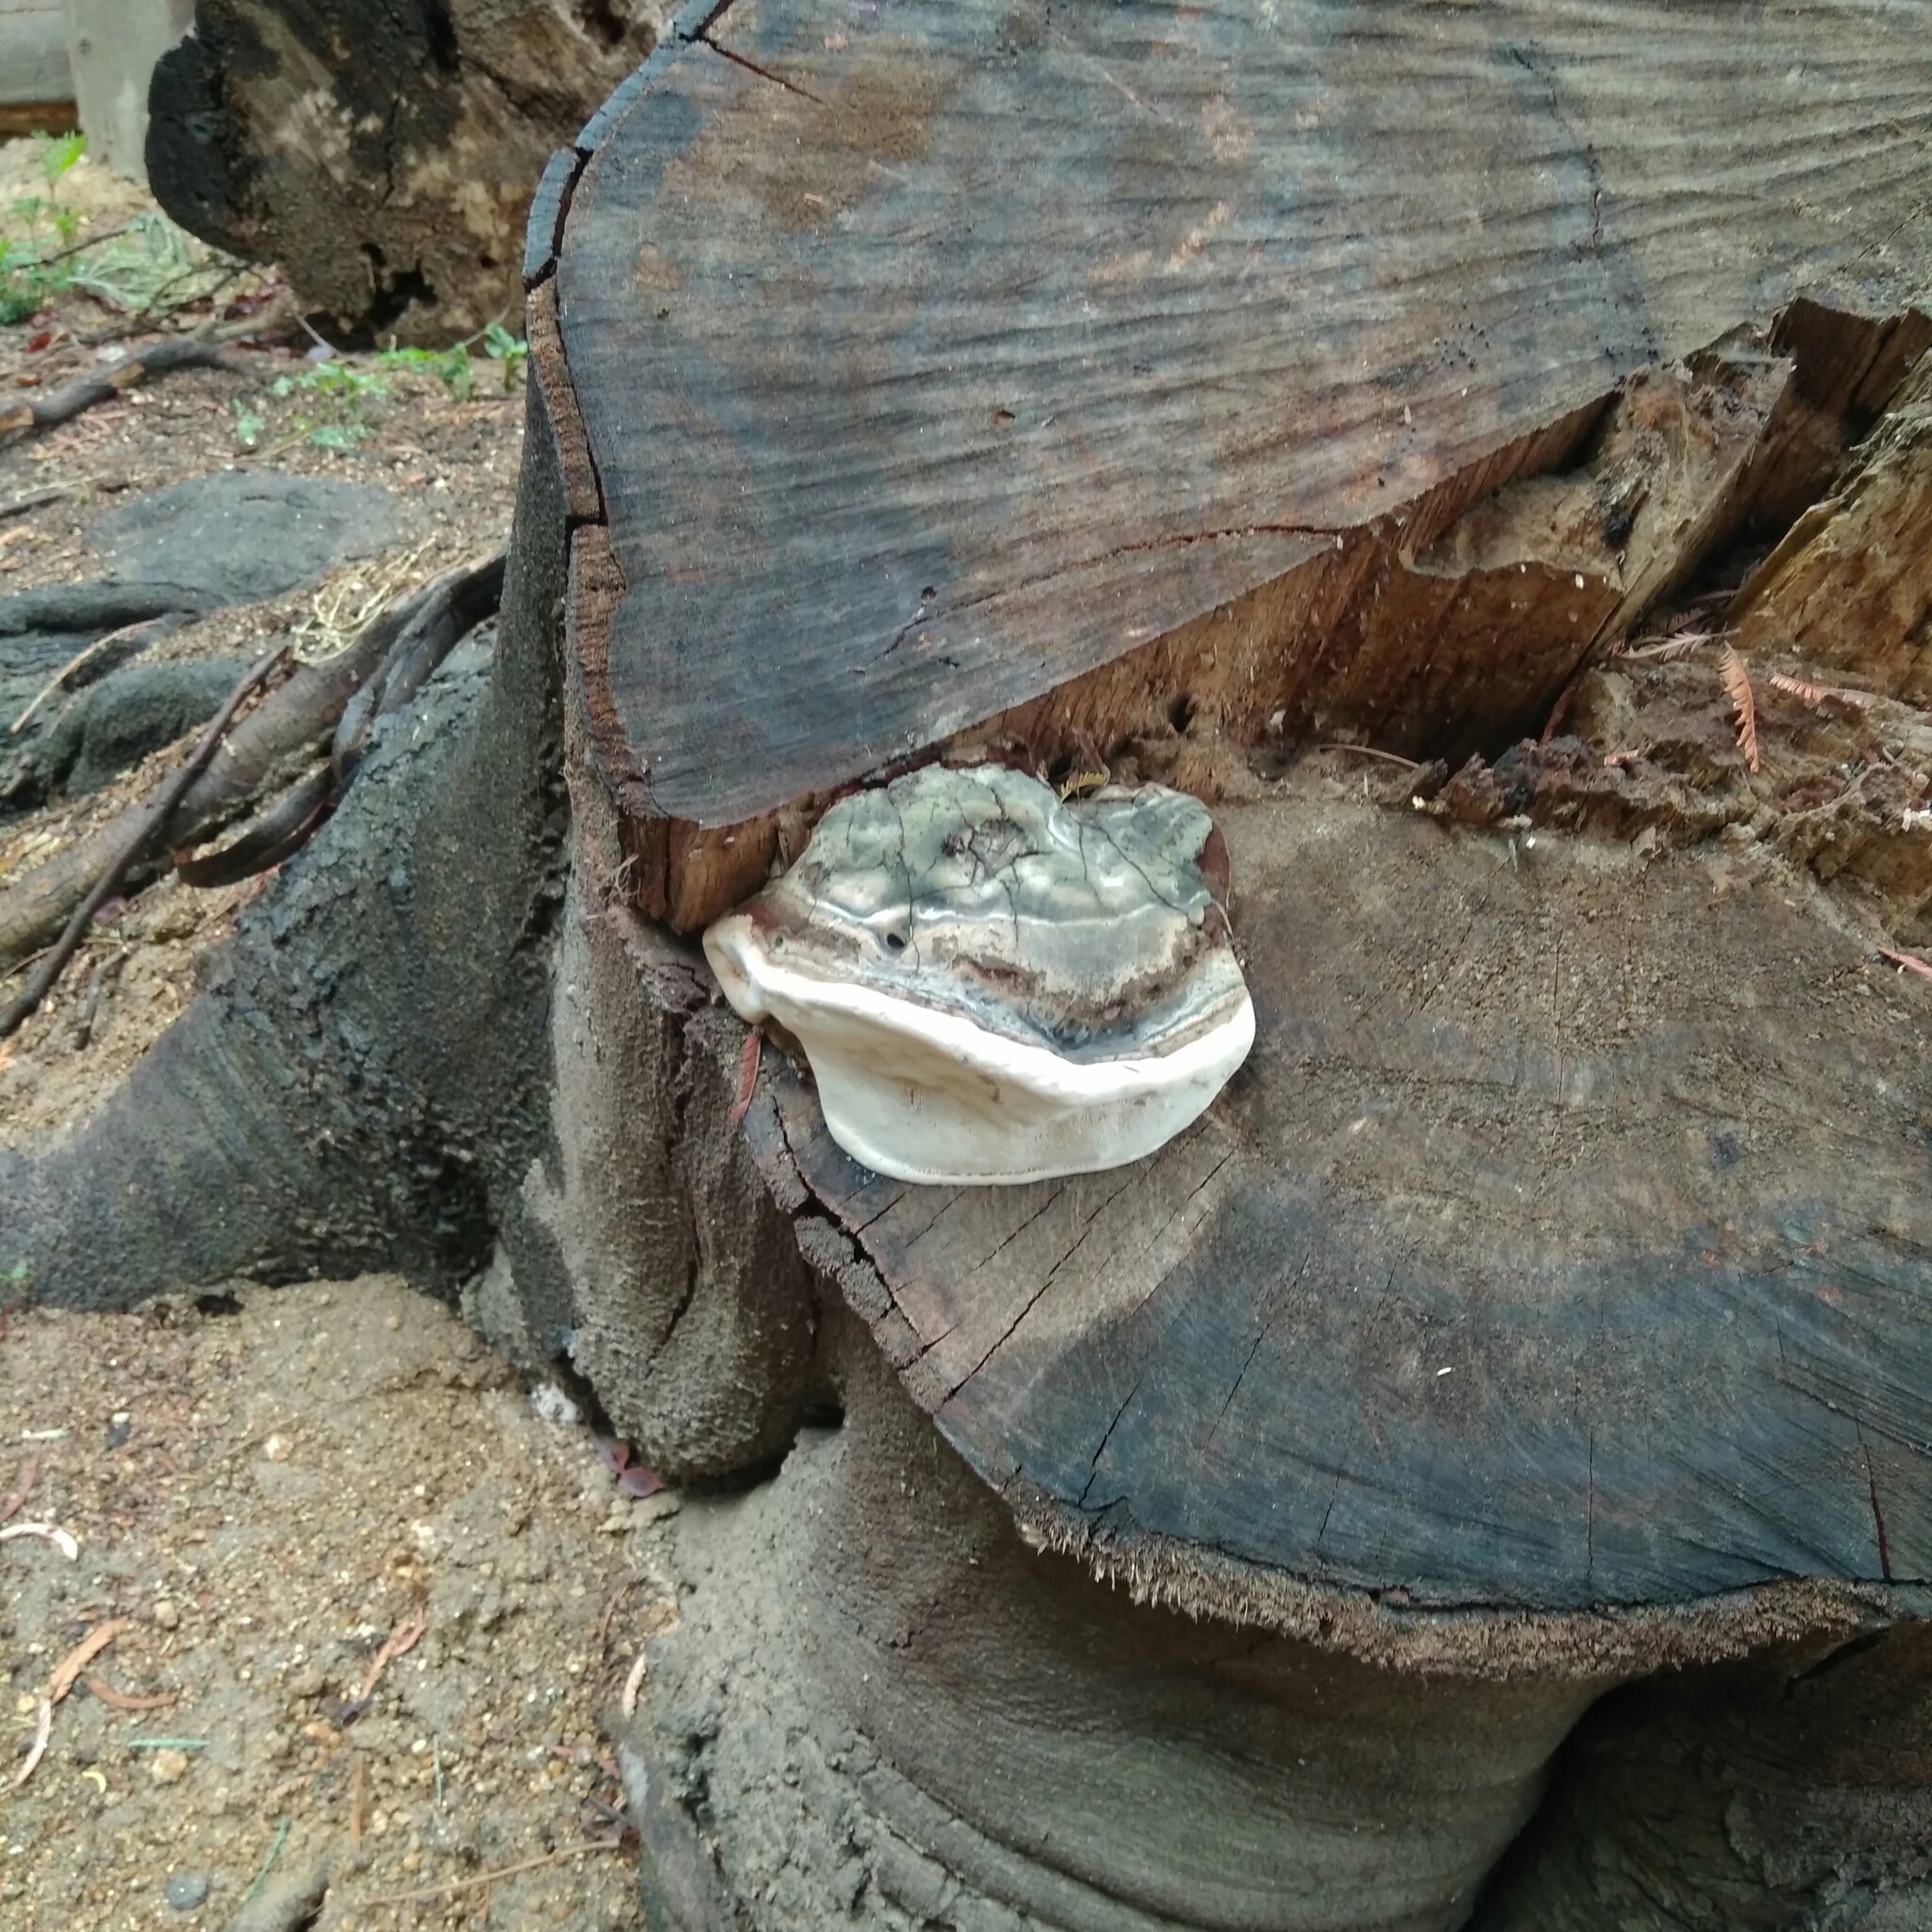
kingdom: Fungi
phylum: Basidiomycota
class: Agaricomycetes
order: Polyporales
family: Polyporaceae
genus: Ganoderma
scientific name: Ganoderma australe
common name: Southern bracket
